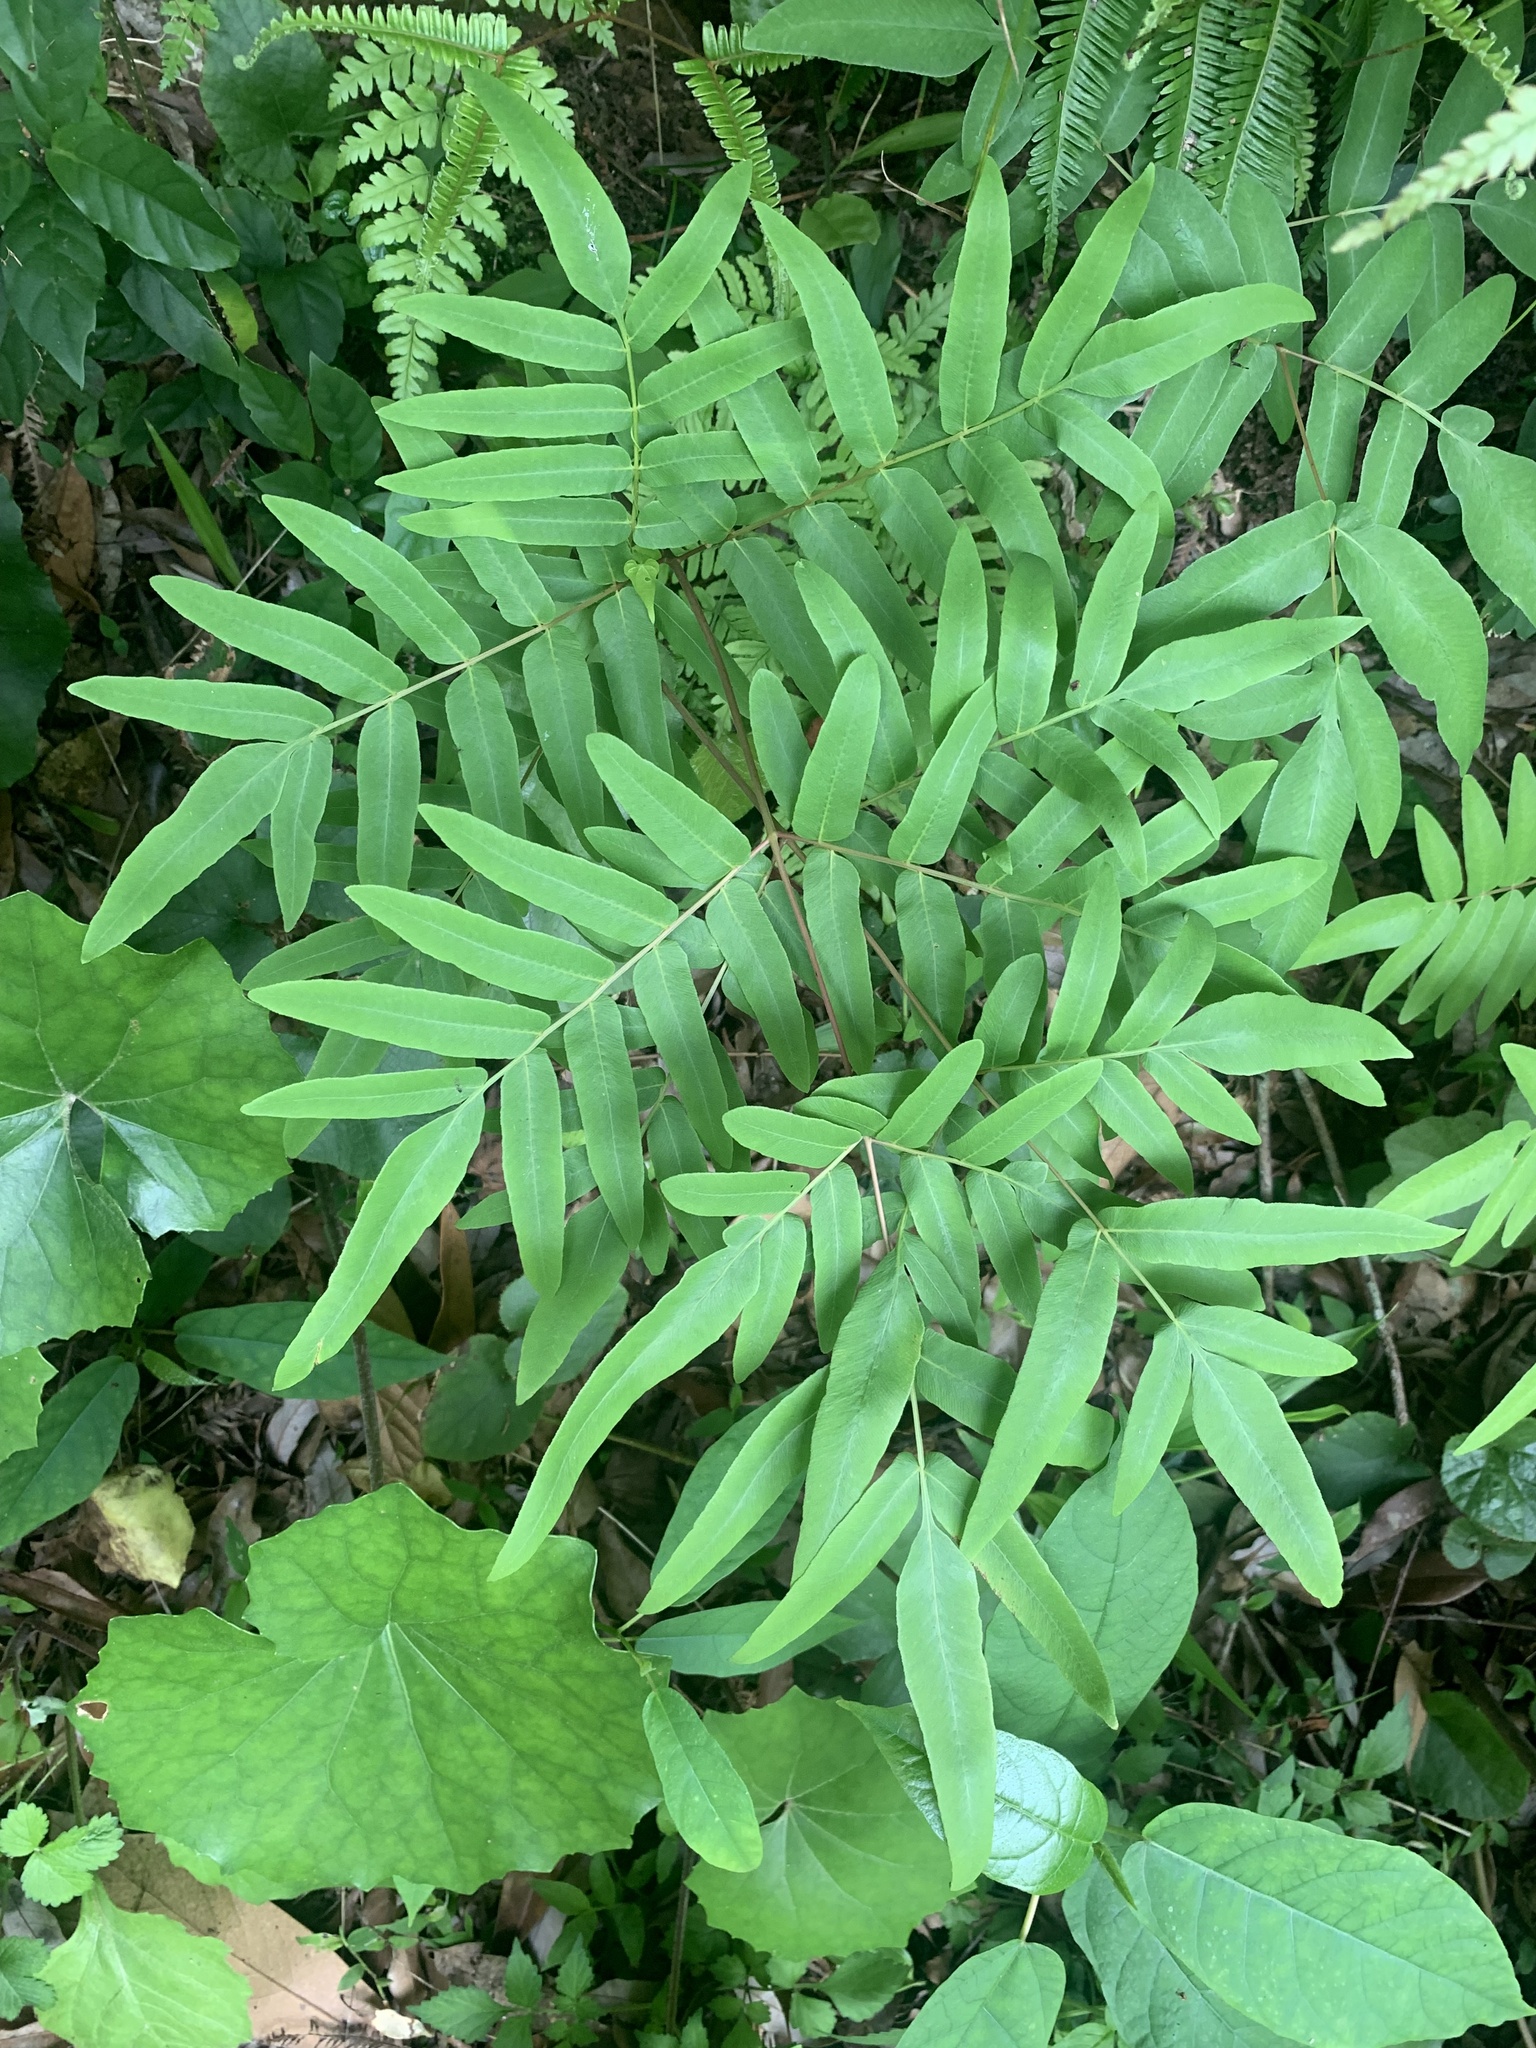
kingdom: Plantae
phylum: Tracheophyta
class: Polypodiopsida
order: Osmundales
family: Osmundaceae
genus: Osmunda
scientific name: Osmunda japonica
